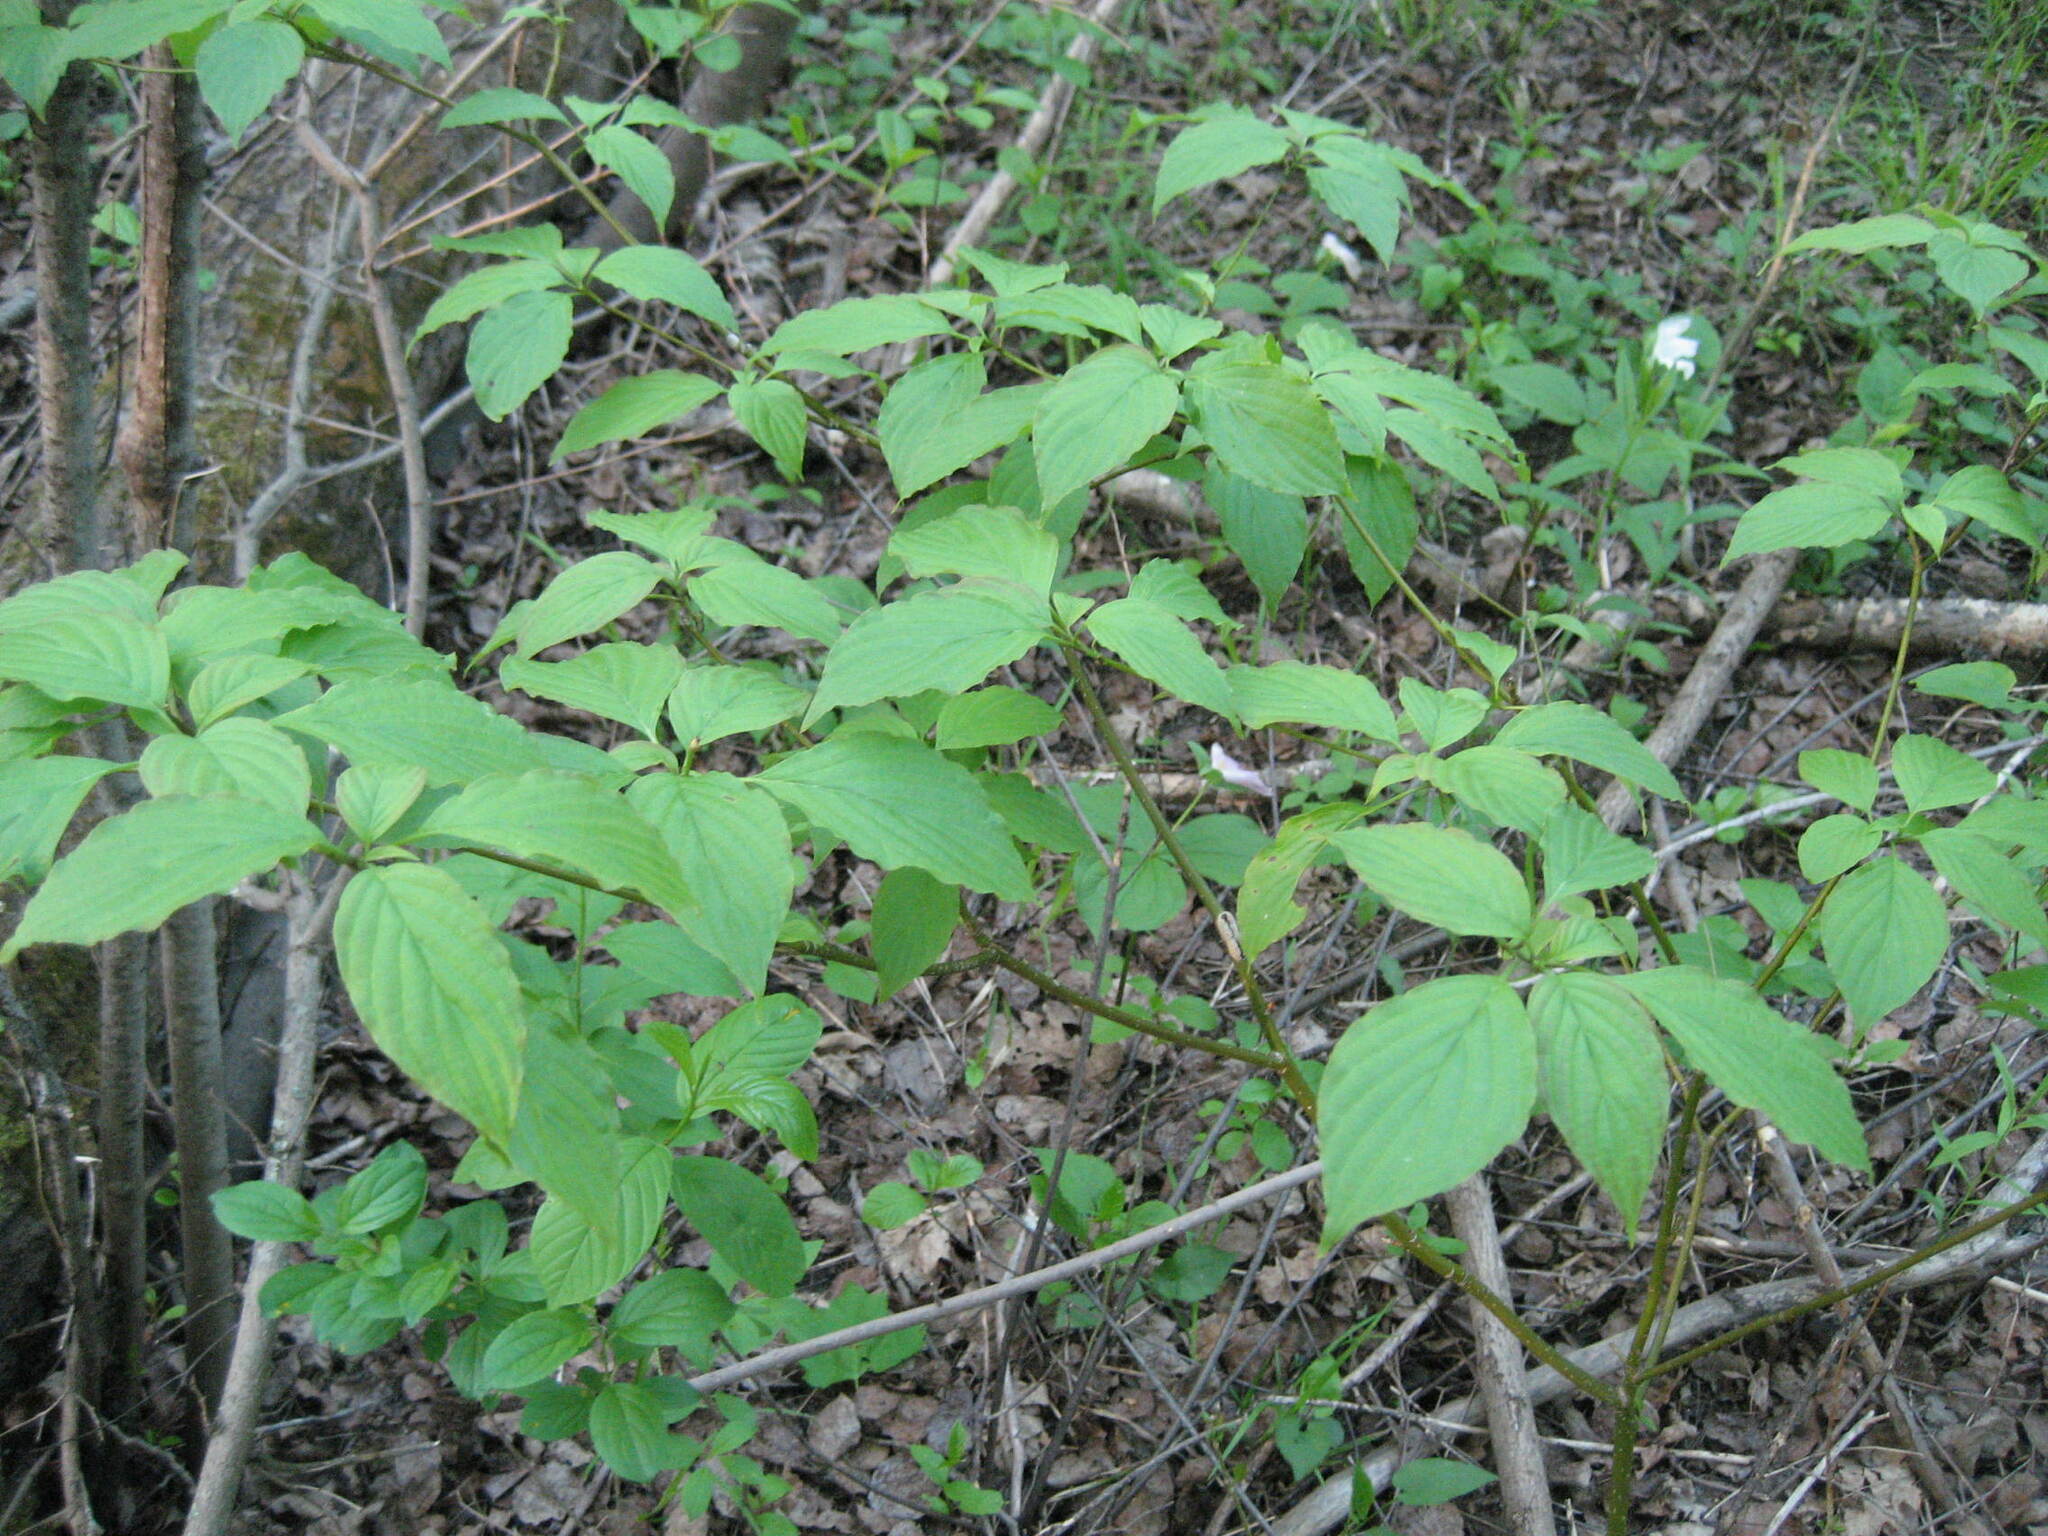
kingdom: Plantae
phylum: Tracheophyta
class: Magnoliopsida
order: Cornales
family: Cornaceae
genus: Cornus
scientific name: Cornus alternifolia
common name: Pagoda dogwood
